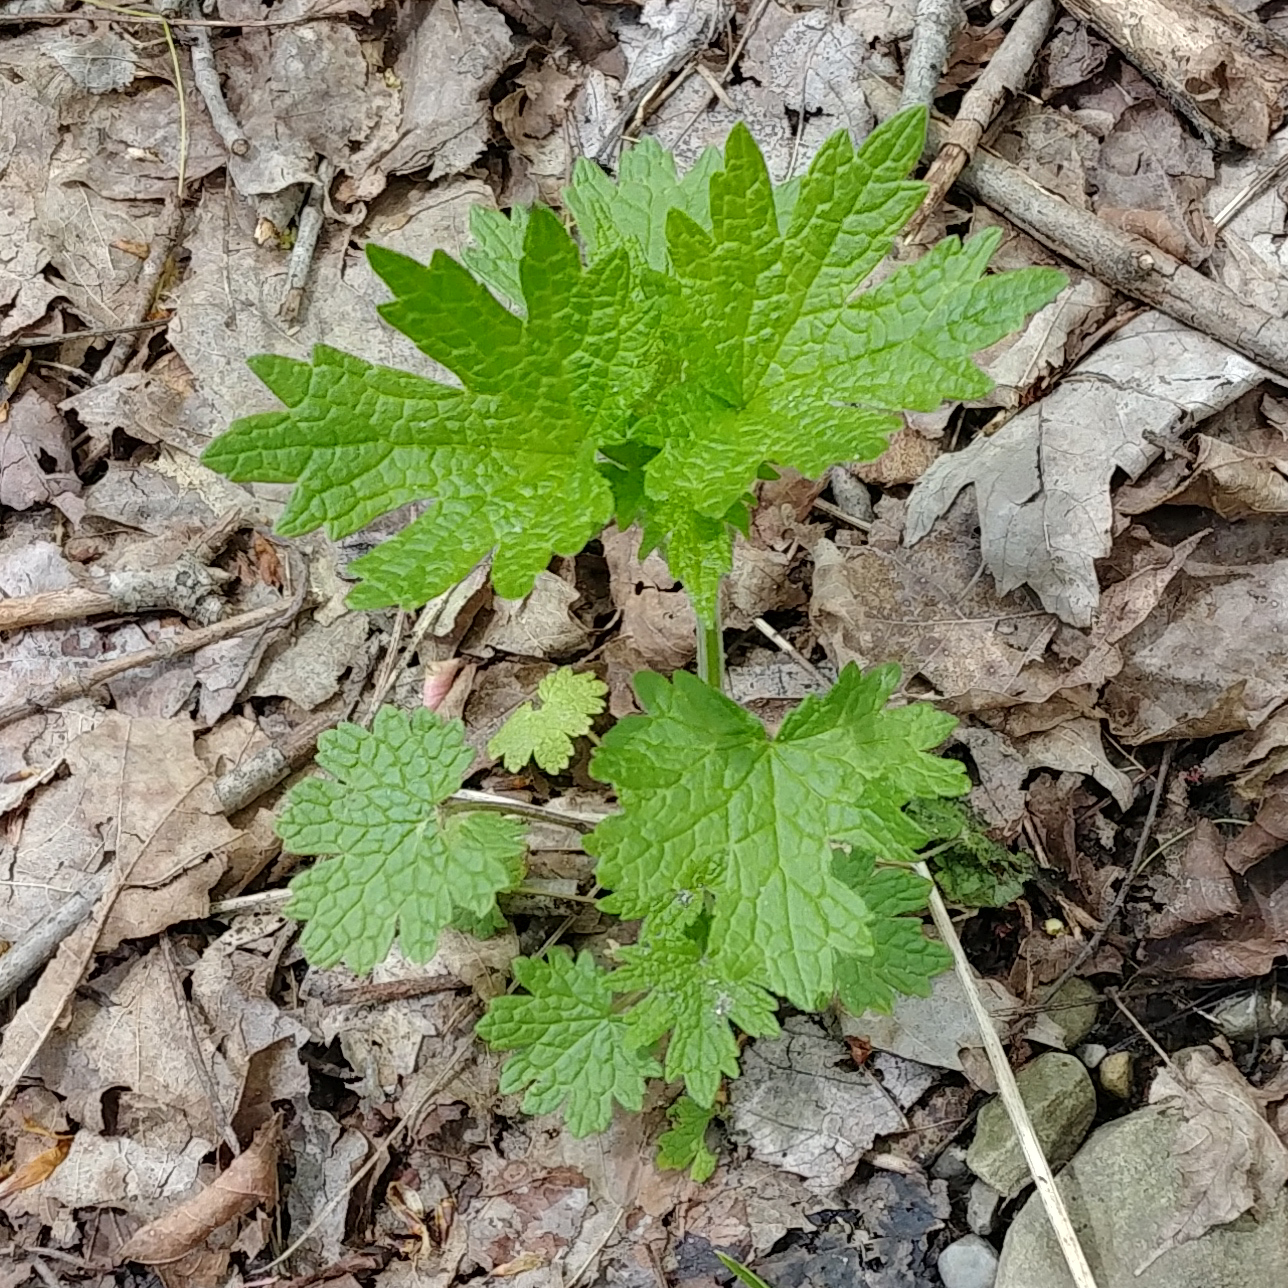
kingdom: Plantae
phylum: Tracheophyta
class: Magnoliopsida
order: Lamiales
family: Lamiaceae
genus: Leonurus
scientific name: Leonurus cardiaca
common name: Motherwort
